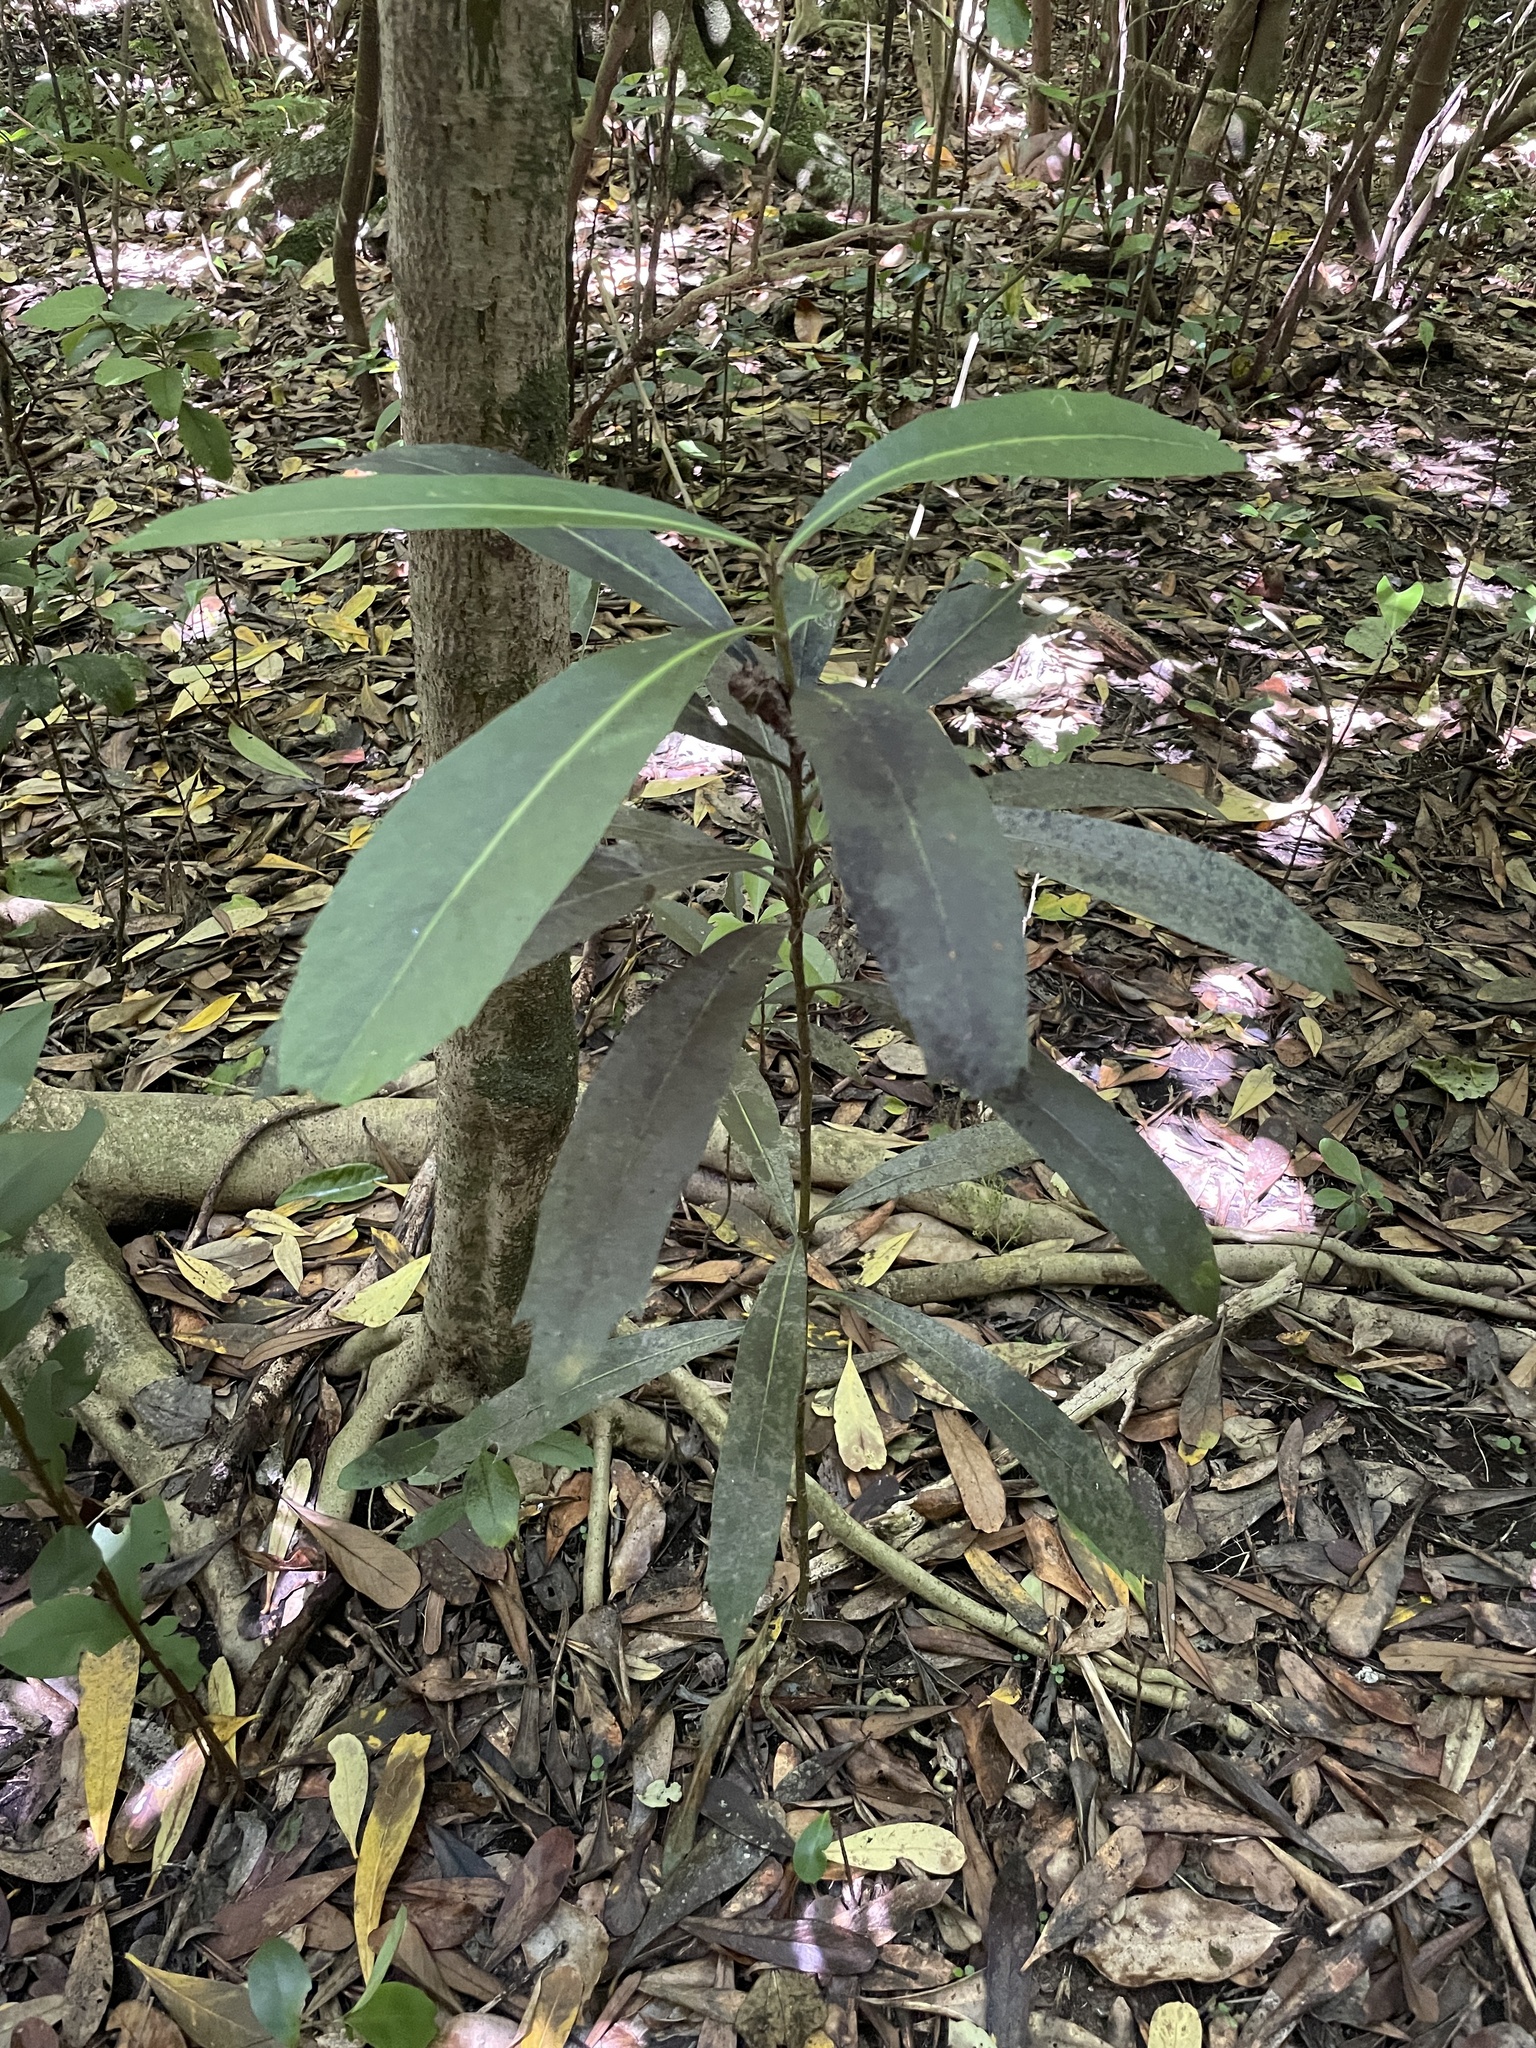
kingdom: Plantae
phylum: Tracheophyta
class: Magnoliopsida
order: Apiales
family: Araliaceae
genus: Pseudopanax
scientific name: Pseudopanax chathamicus
